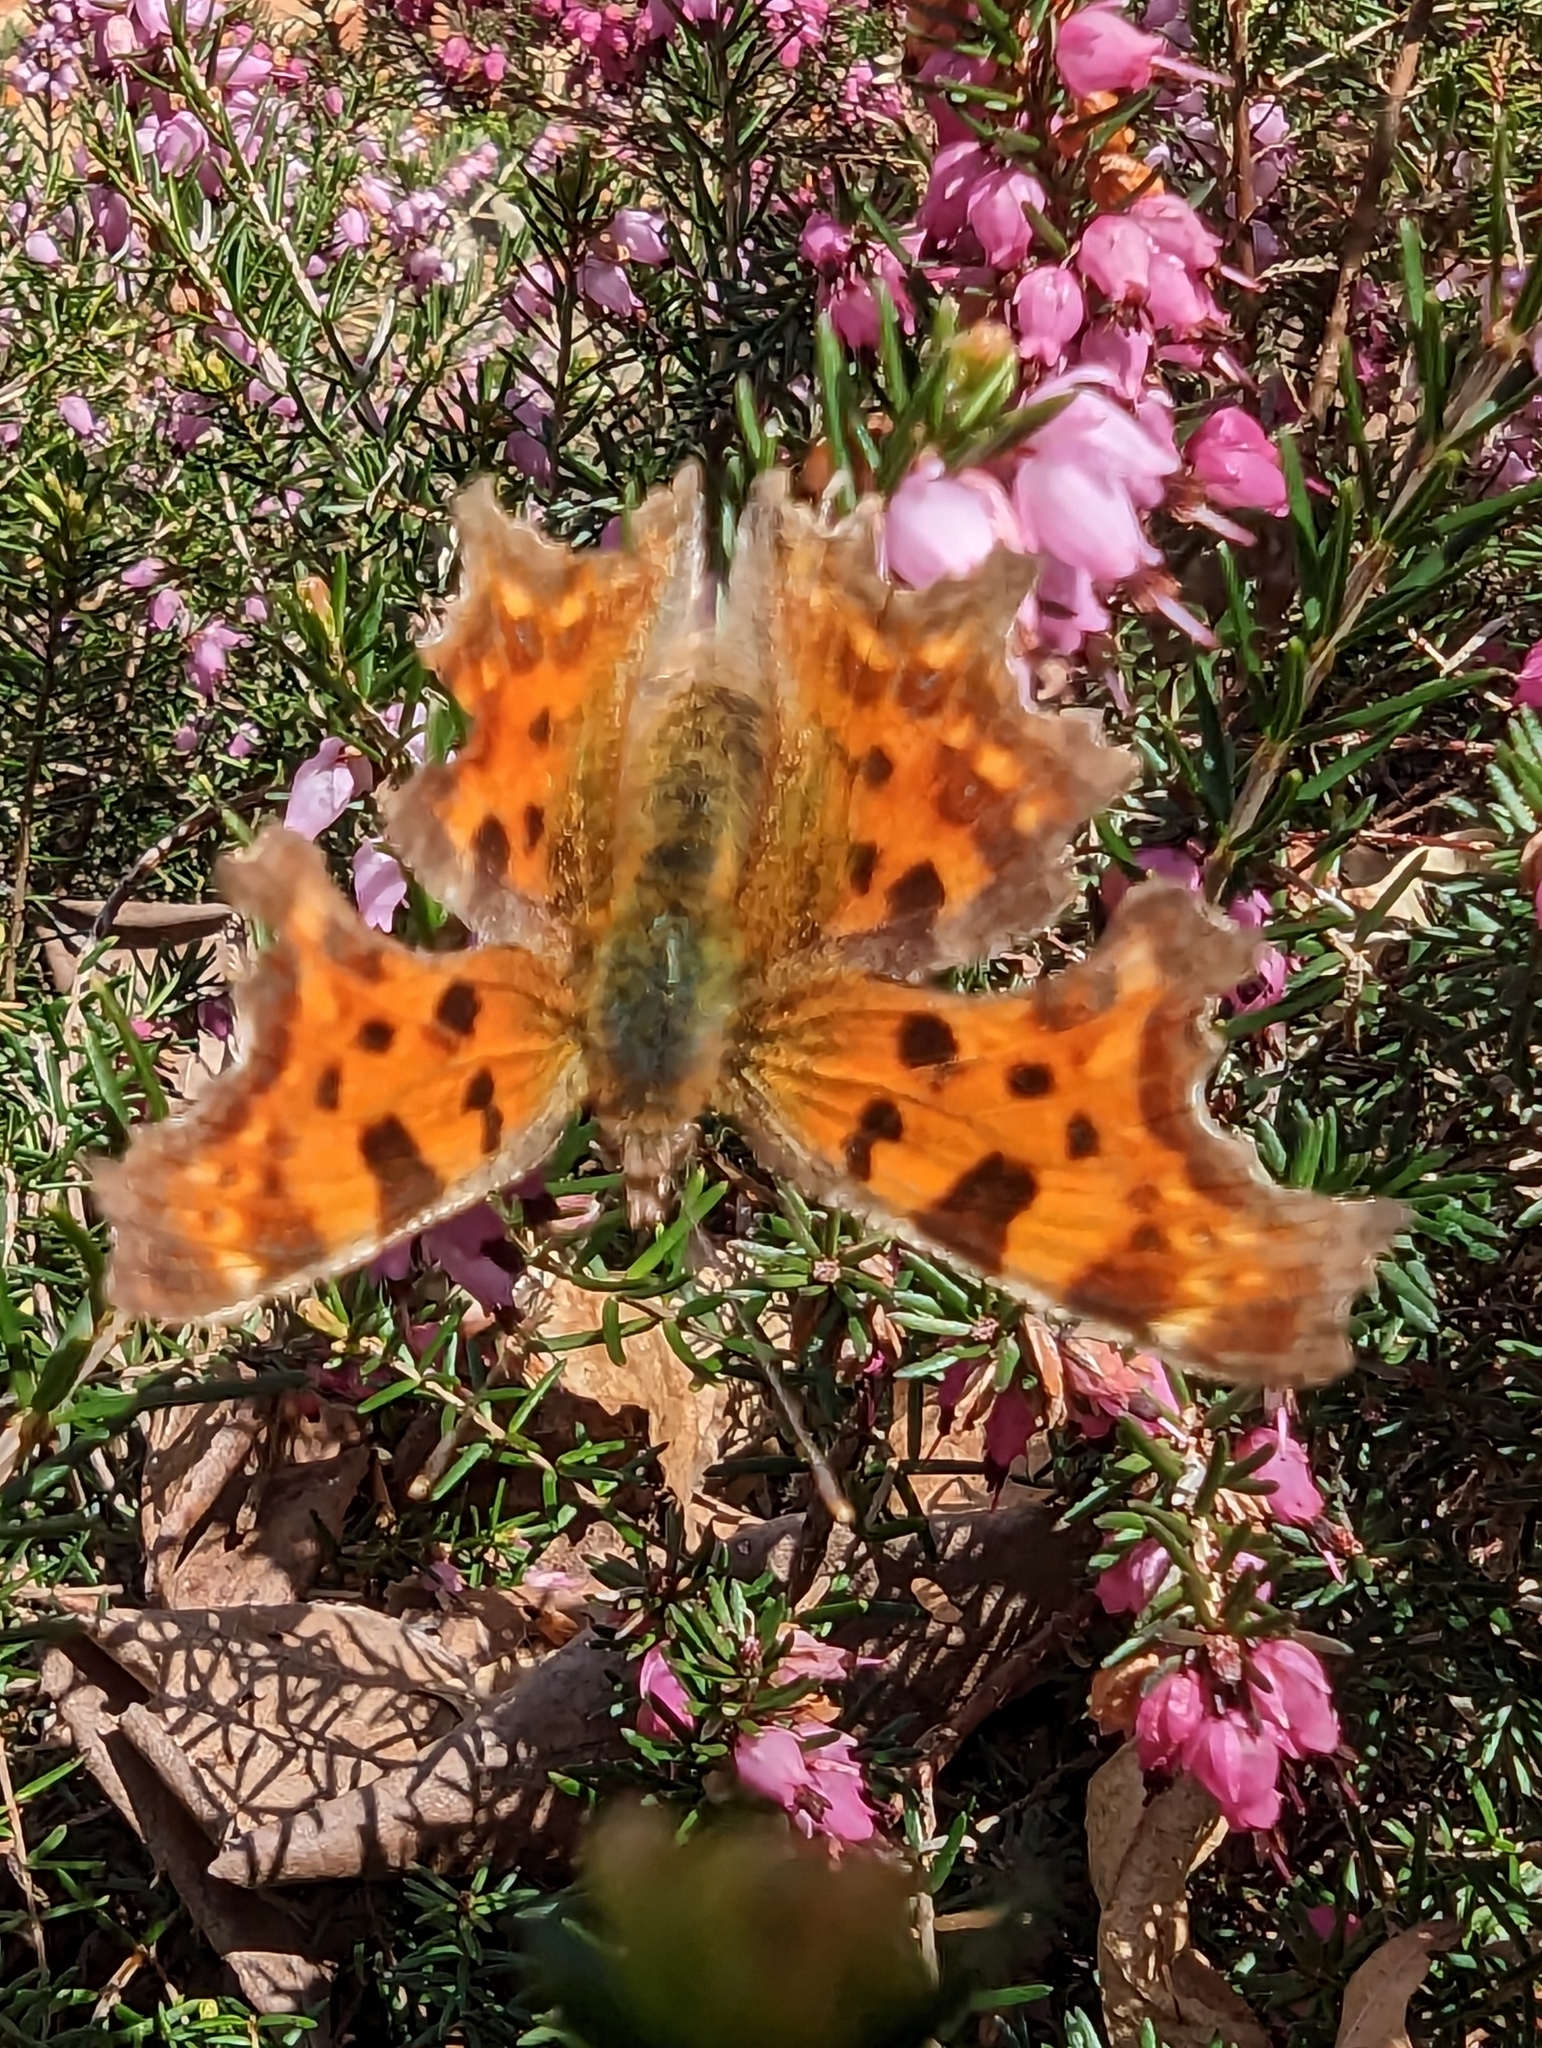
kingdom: Animalia
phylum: Arthropoda
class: Insecta
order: Lepidoptera
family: Nymphalidae
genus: Polygonia
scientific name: Polygonia c-album
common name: Comma
